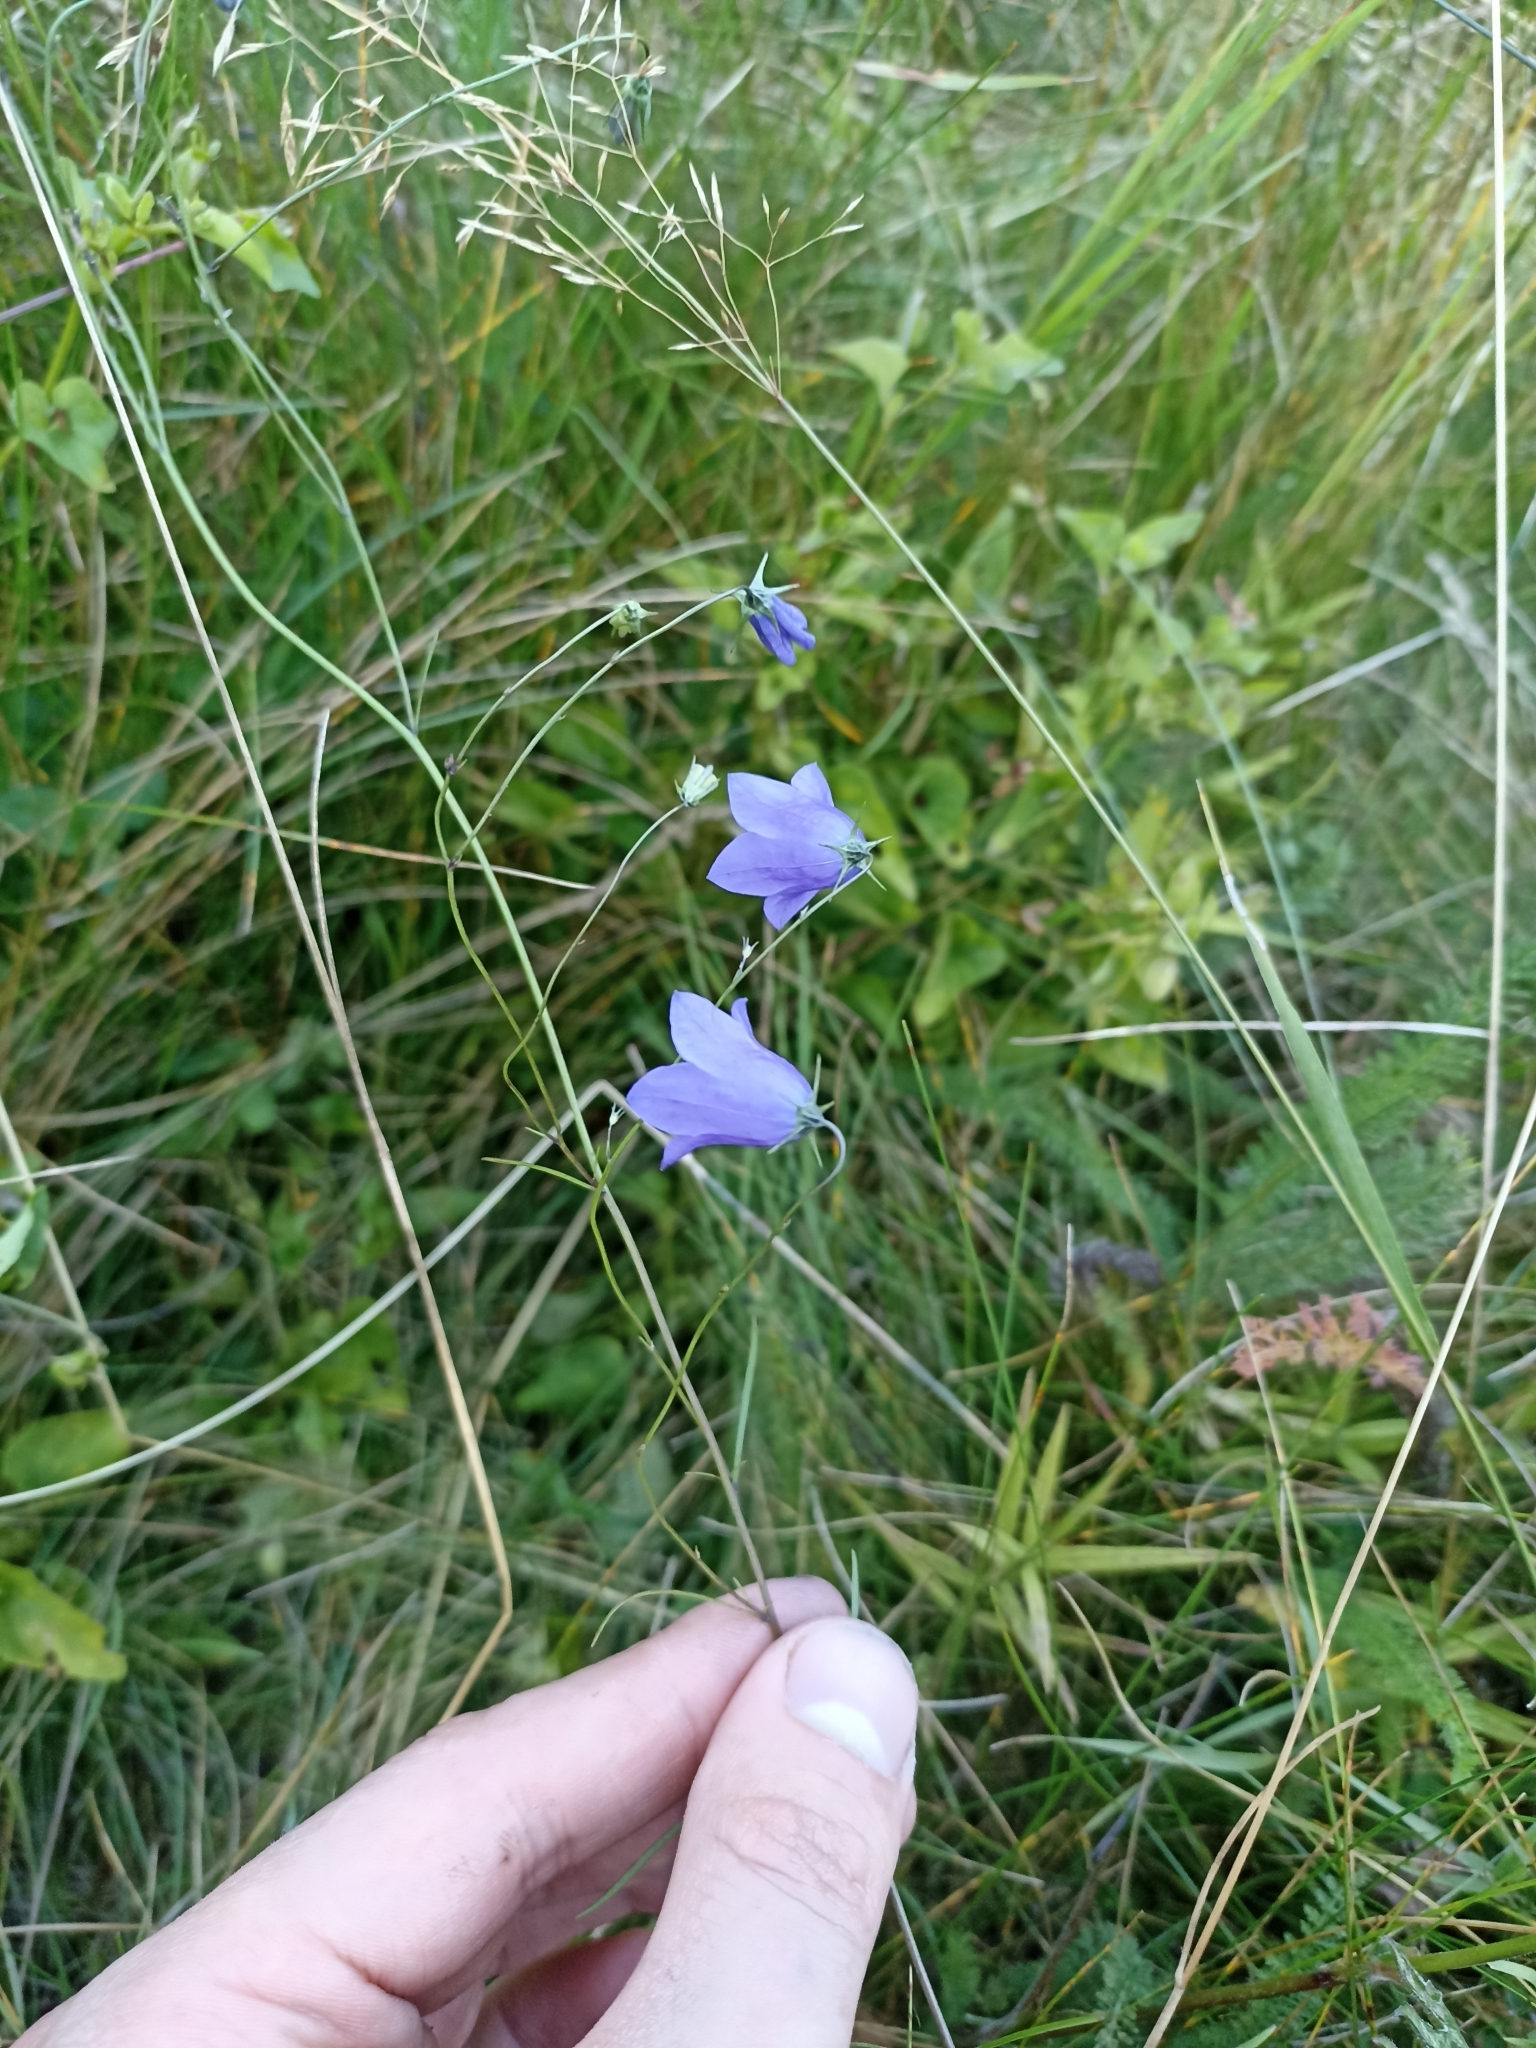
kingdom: Plantae
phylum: Tracheophyta
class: Magnoliopsida
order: Asterales
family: Campanulaceae
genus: Campanula
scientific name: Campanula rotundifolia
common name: Harebell
